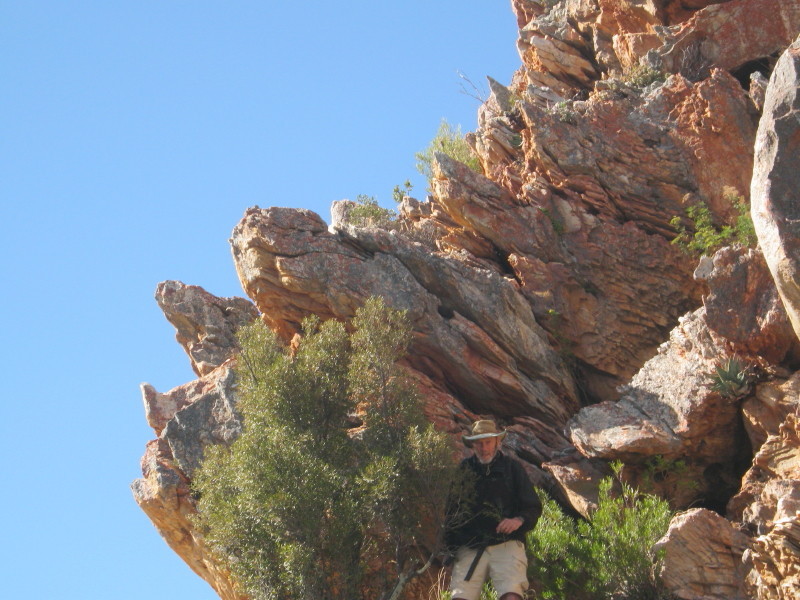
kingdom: Plantae
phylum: Tracheophyta
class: Magnoliopsida
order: Celastrales
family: Celastraceae
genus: Gymnosporia
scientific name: Gymnosporia acuminata
